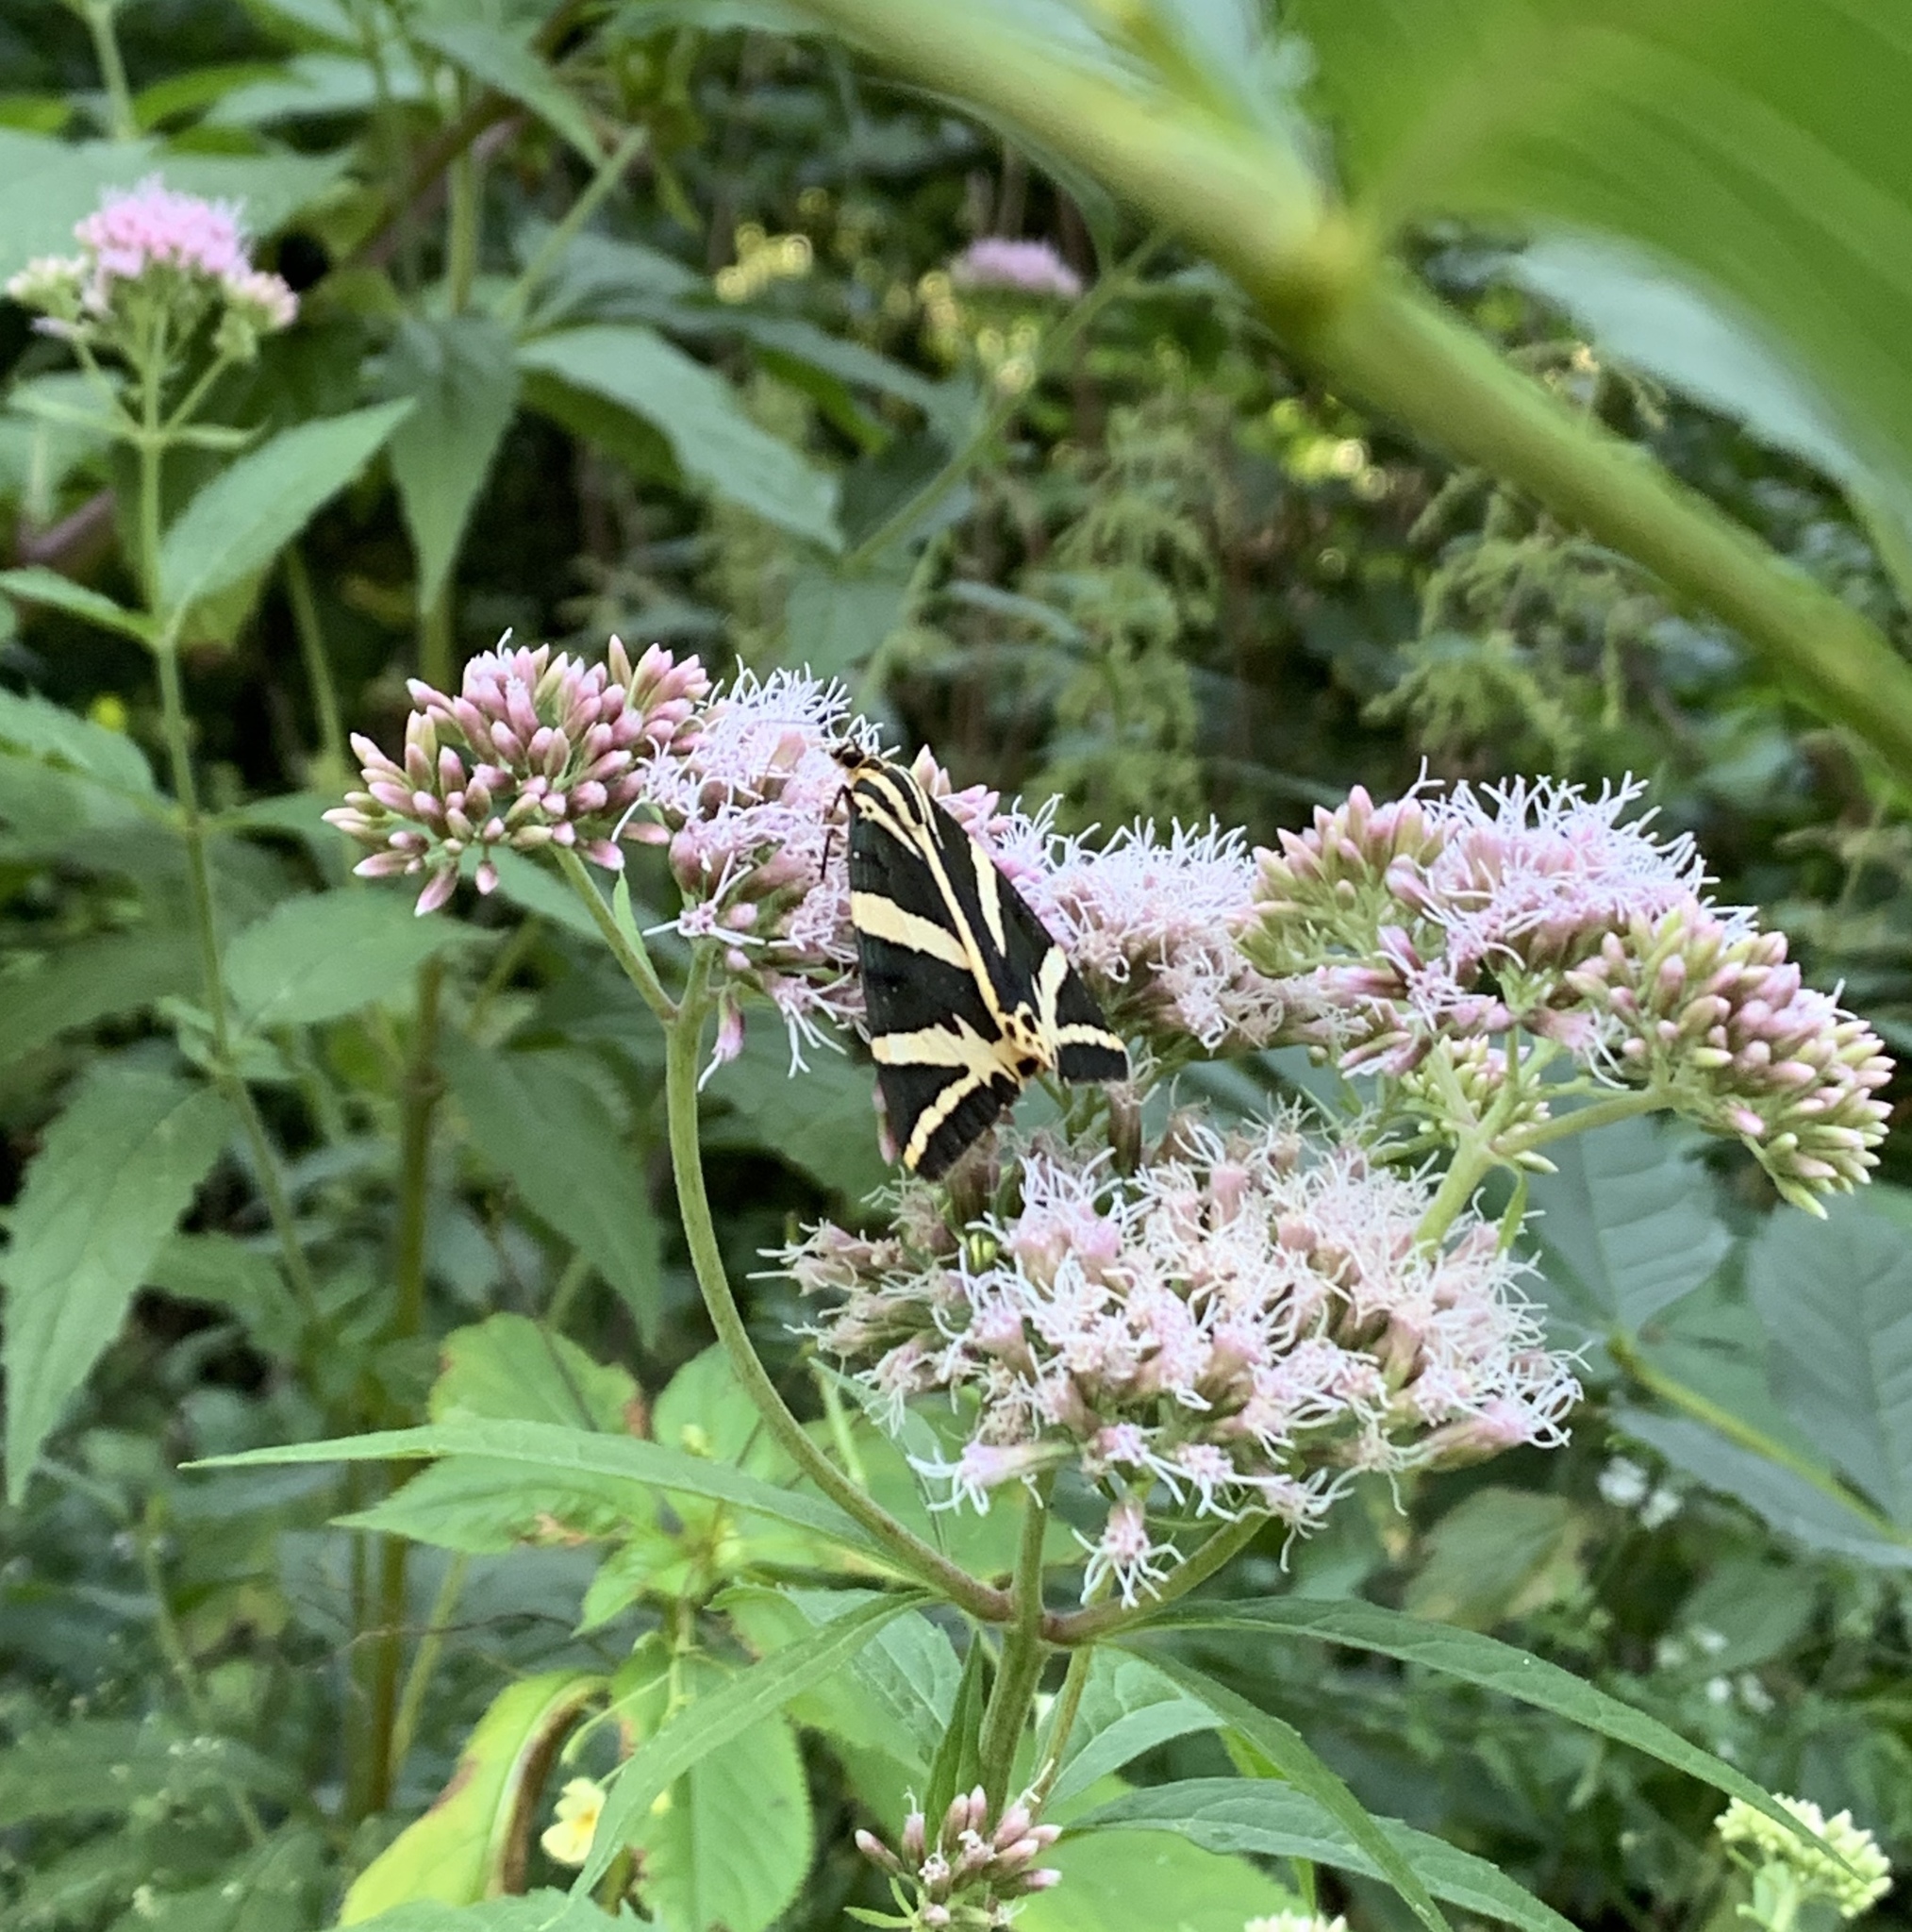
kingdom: Animalia
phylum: Arthropoda
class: Insecta
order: Lepidoptera
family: Erebidae
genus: Euplagia
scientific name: Euplagia quadripunctaria
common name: Jersey tiger
